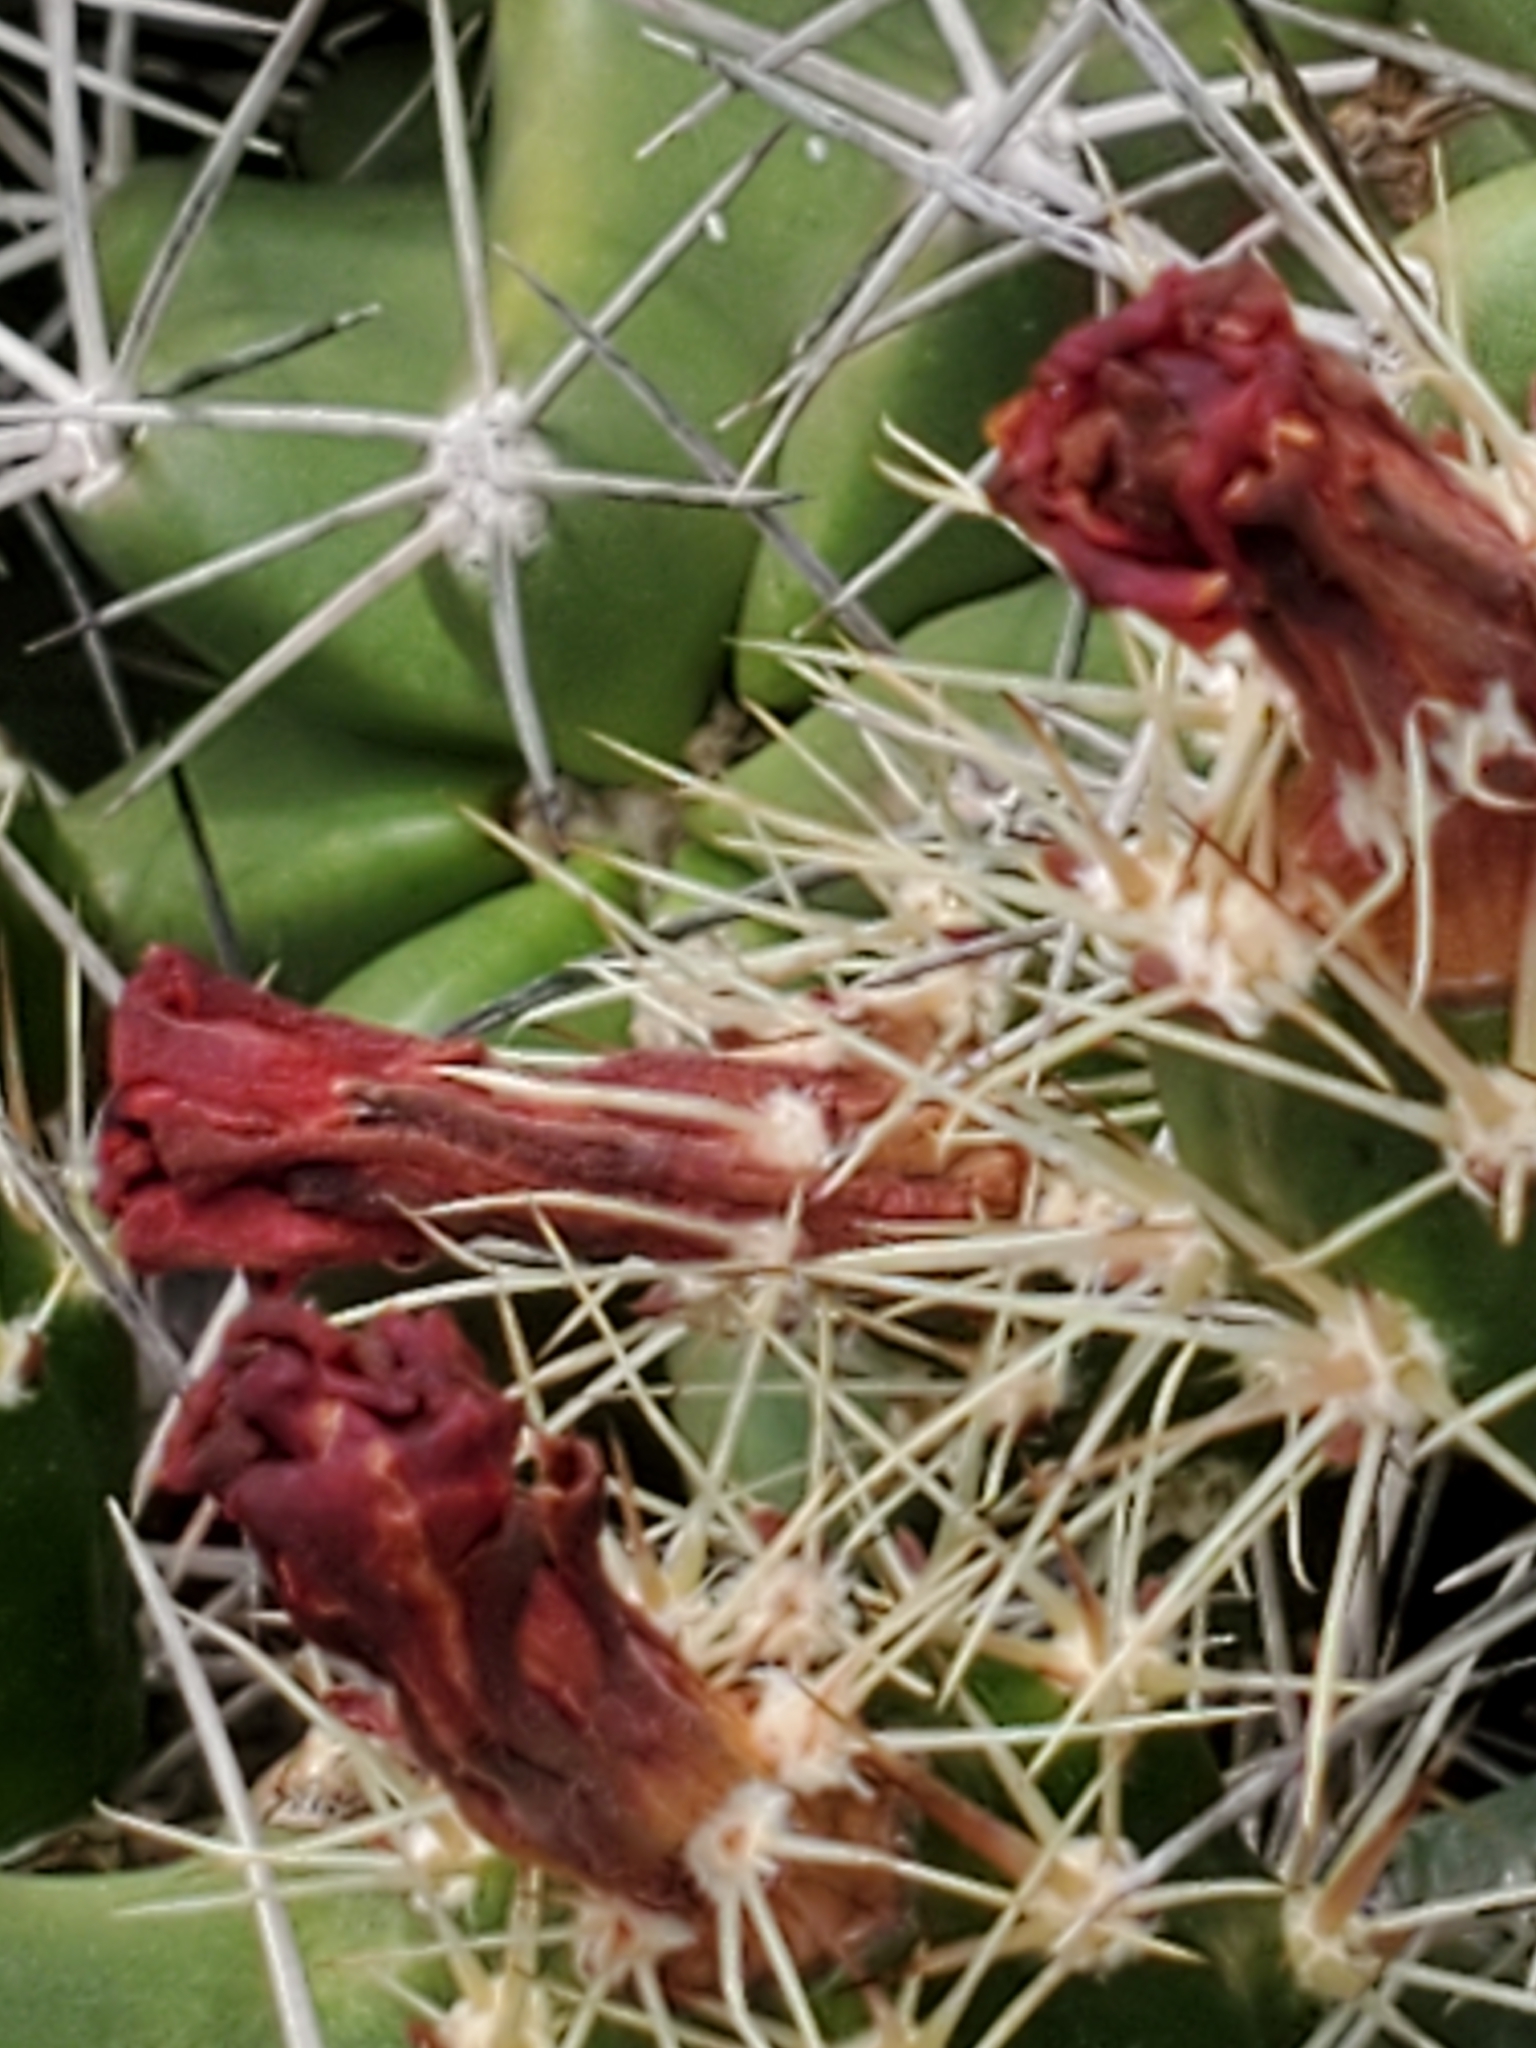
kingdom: Plantae
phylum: Tracheophyta
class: Magnoliopsida
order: Caryophyllales
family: Cactaceae
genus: Echinocereus
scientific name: Echinocereus coccineus
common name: Scarlet hedgehog cactus
